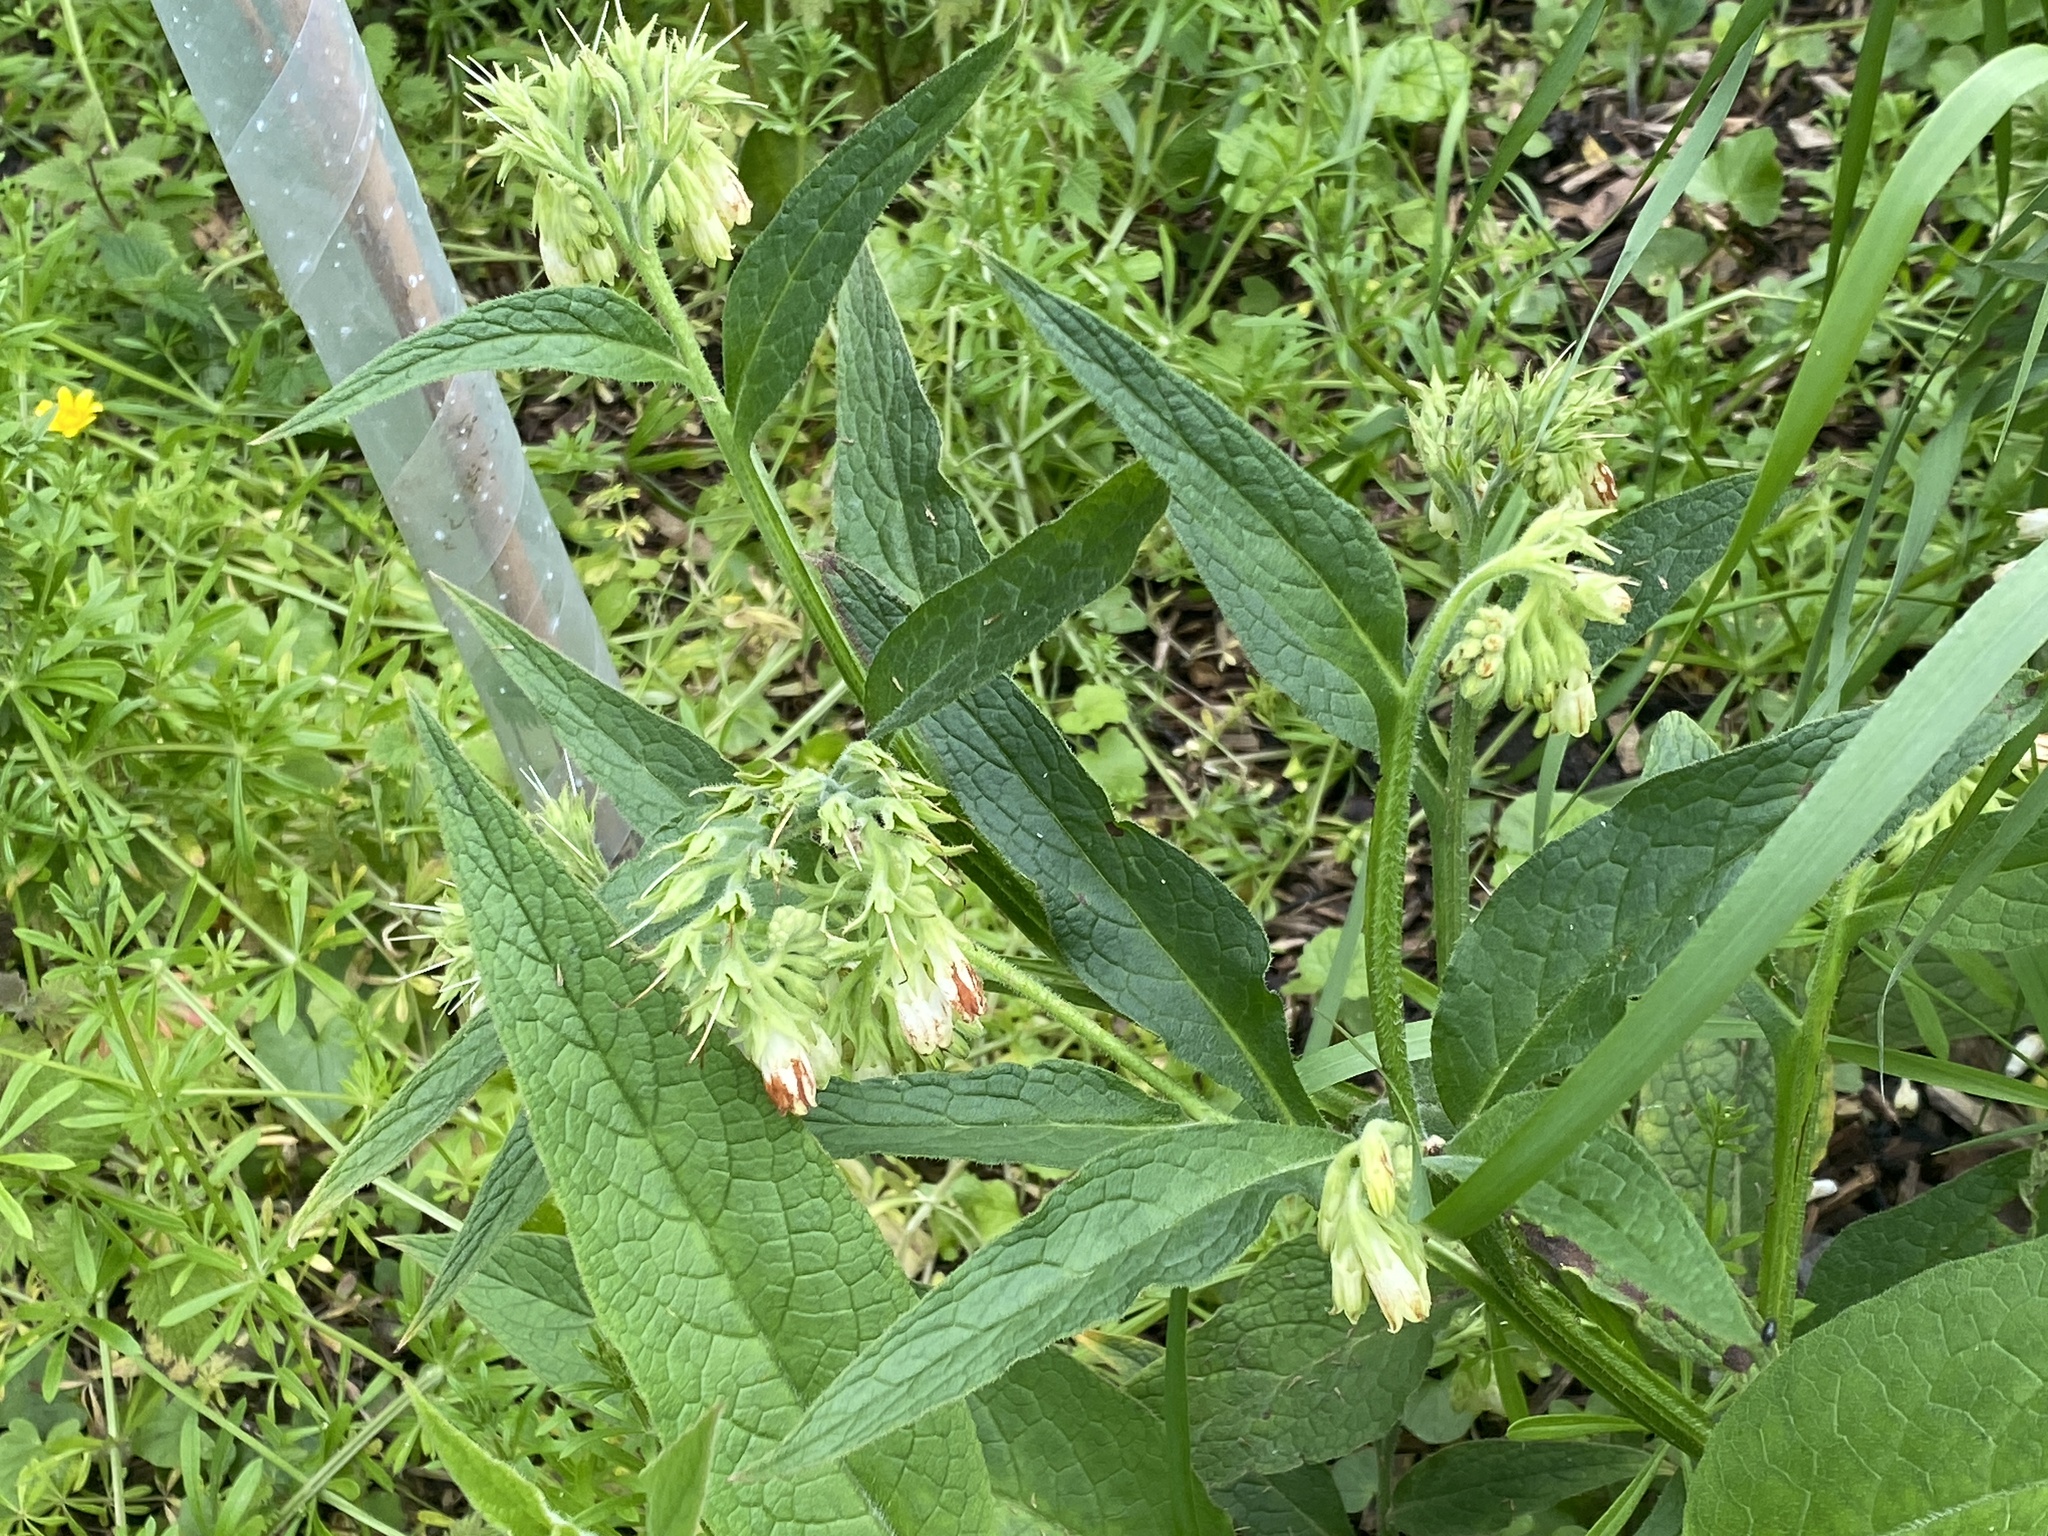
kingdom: Plantae
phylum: Tracheophyta
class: Magnoliopsida
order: Boraginales
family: Boraginaceae
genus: Symphytum
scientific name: Symphytum officinale
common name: Common comfrey
